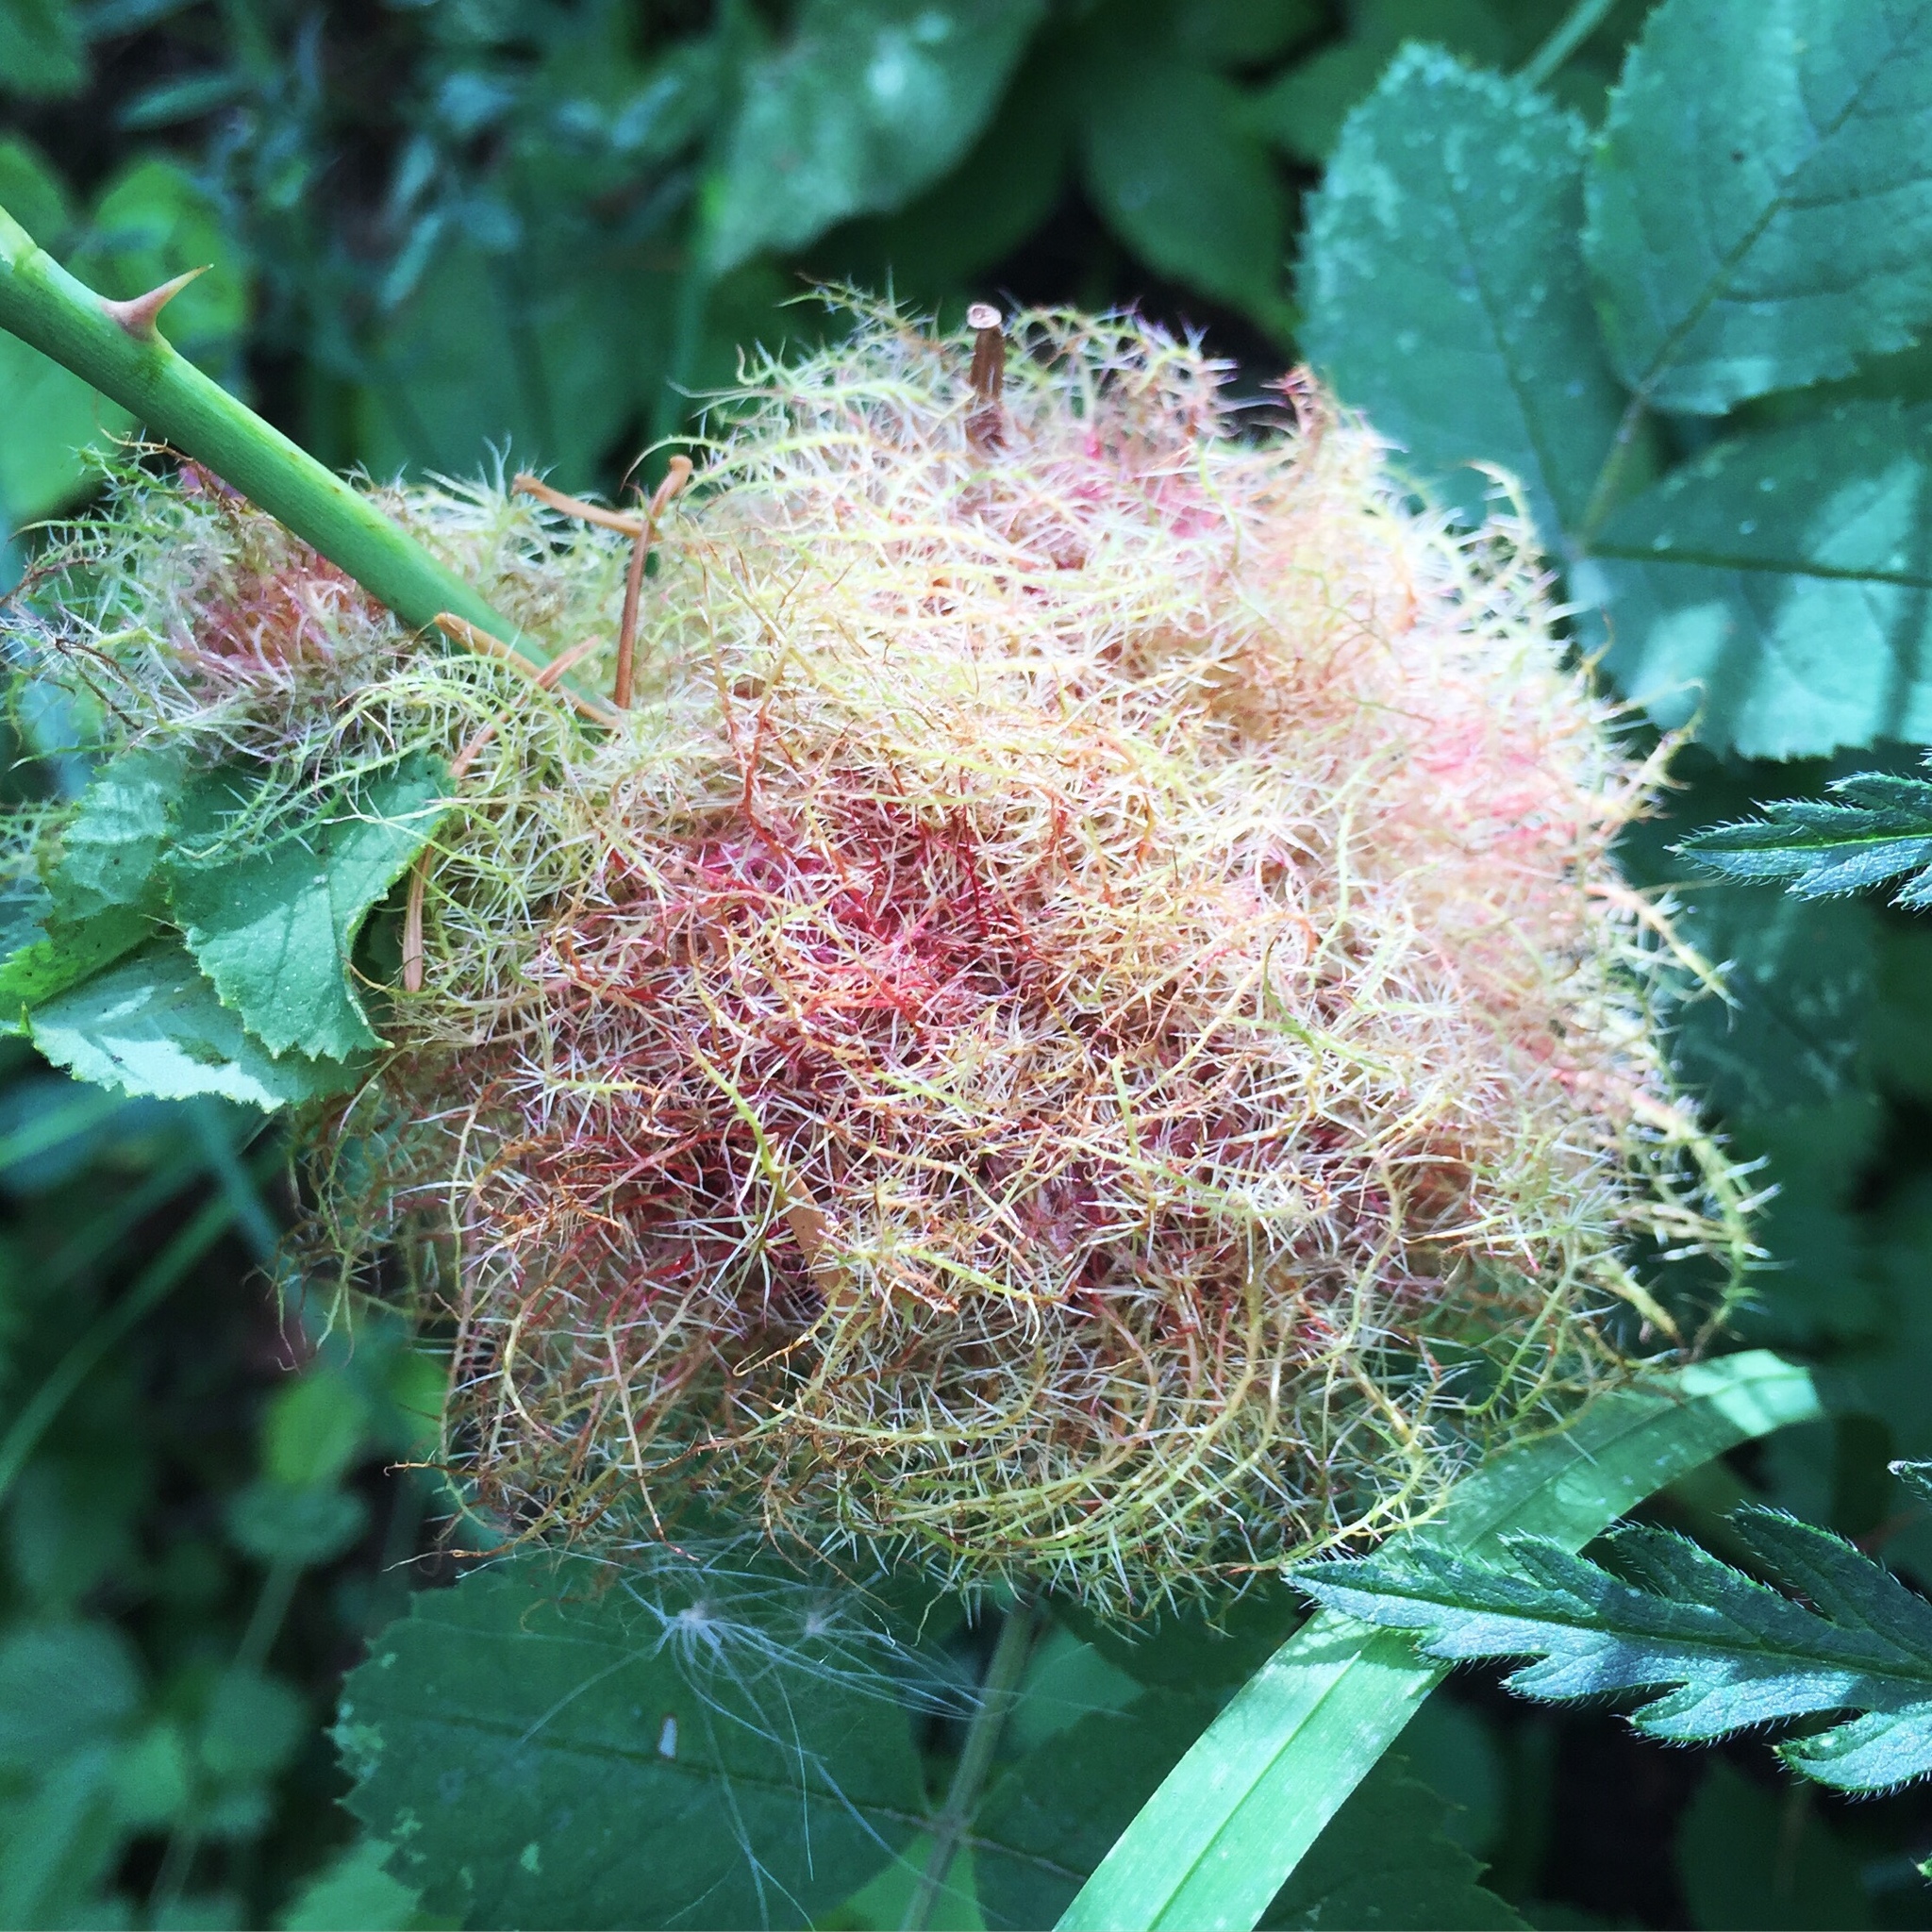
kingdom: Animalia
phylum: Arthropoda
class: Insecta
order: Hymenoptera
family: Cynipidae
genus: Diplolepis
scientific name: Diplolepis rosae
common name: Bedeguar gall
